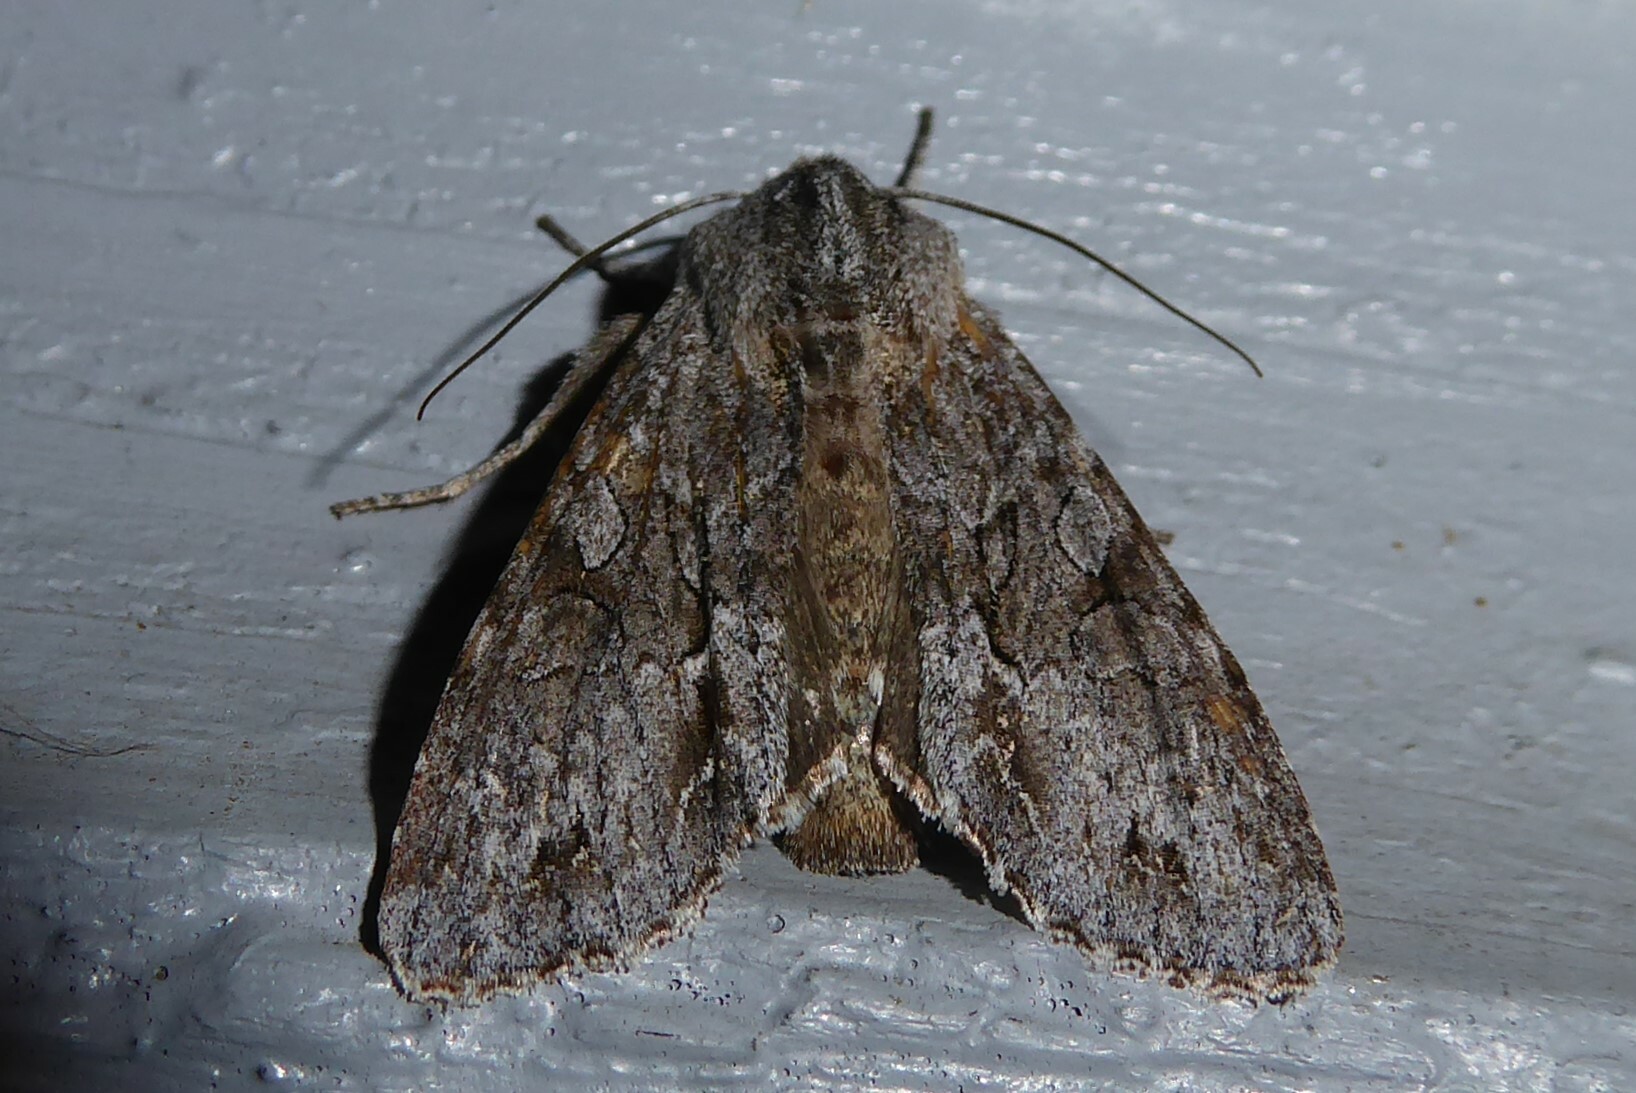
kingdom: Animalia
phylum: Arthropoda
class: Insecta
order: Lepidoptera
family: Noctuidae
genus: Ichneutica
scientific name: Ichneutica
